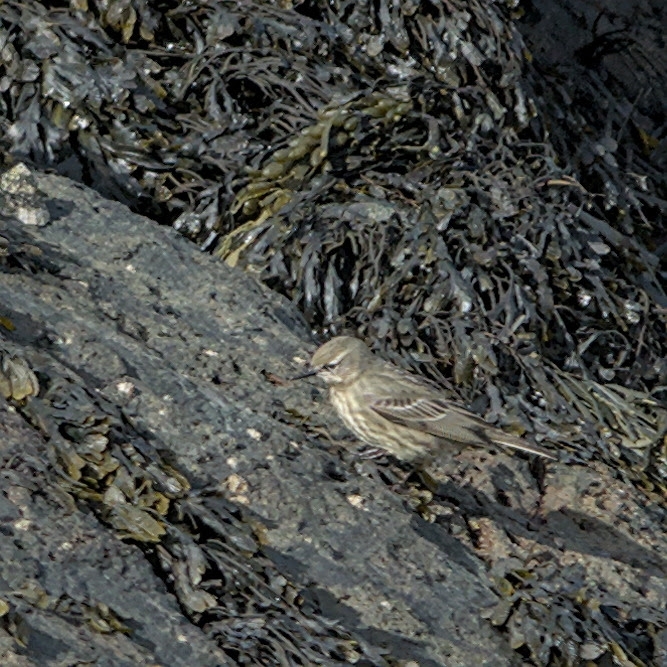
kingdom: Animalia
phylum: Chordata
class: Aves
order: Passeriformes
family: Motacillidae
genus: Anthus
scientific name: Anthus petrosus
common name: Eurasian rock pipit
